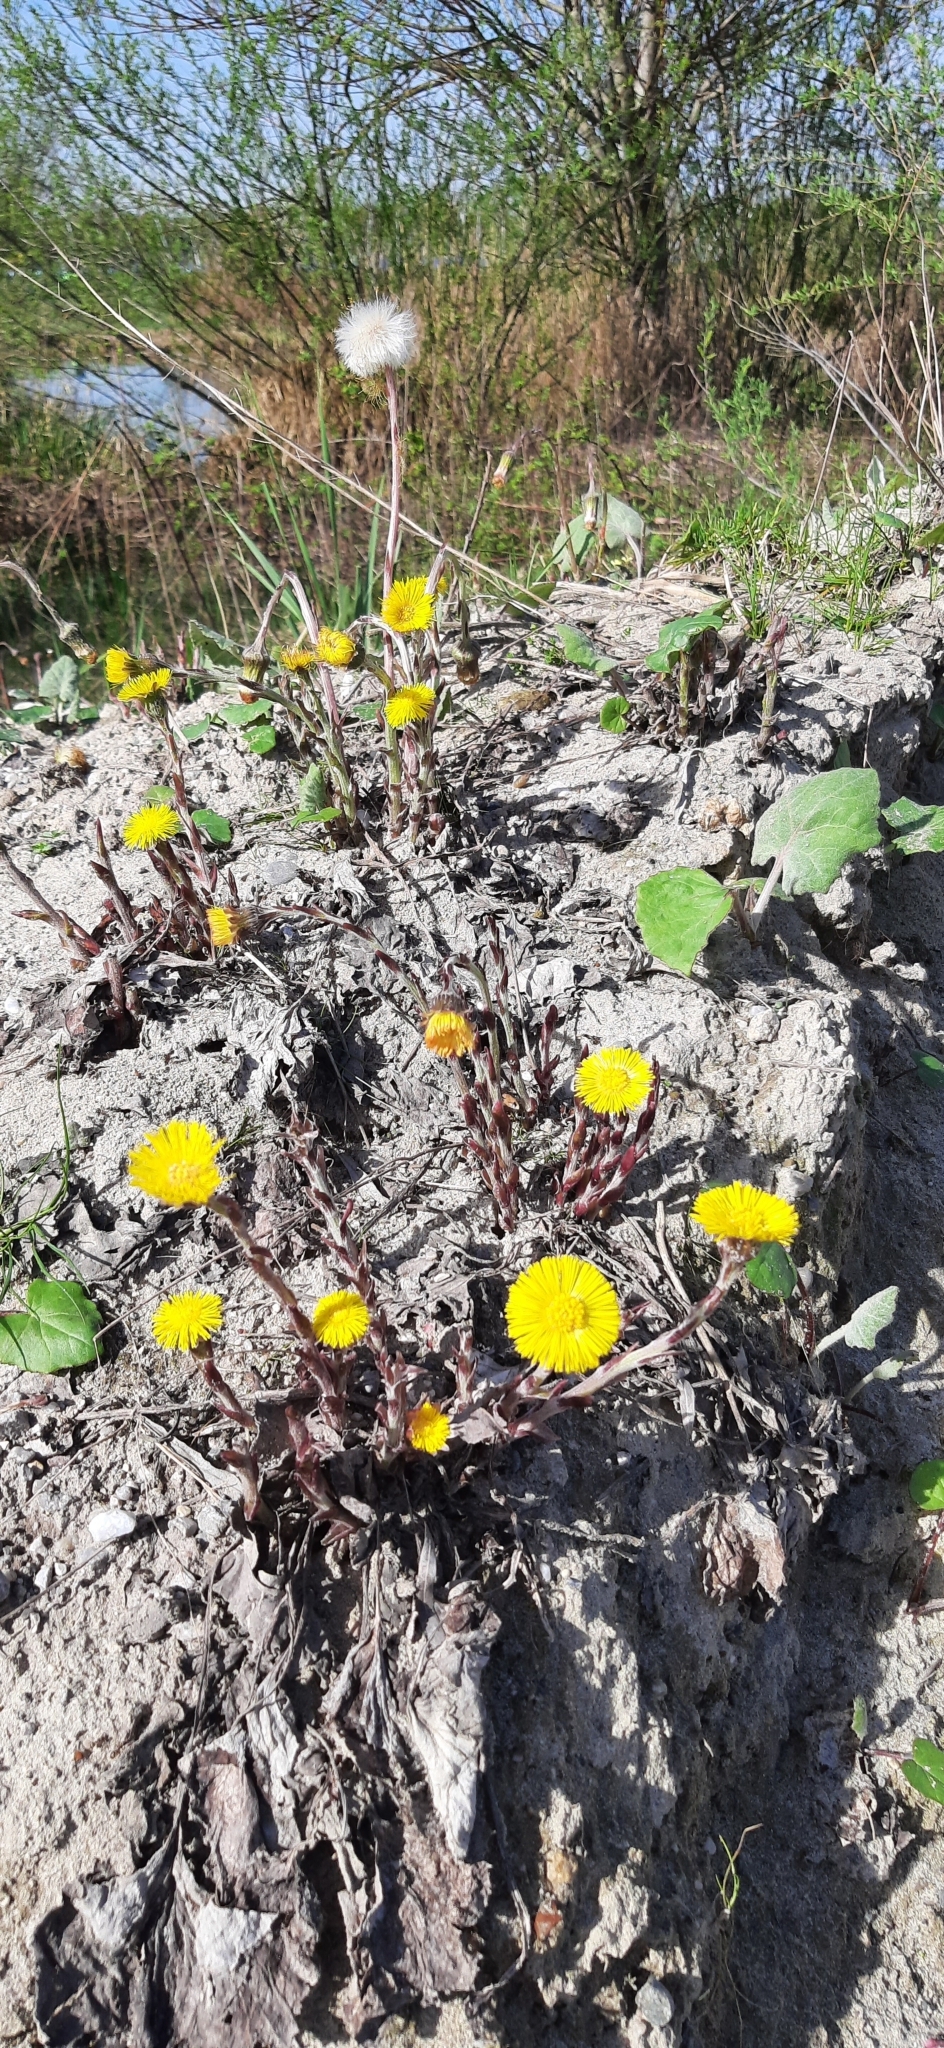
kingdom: Plantae
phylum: Tracheophyta
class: Magnoliopsida
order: Asterales
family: Asteraceae
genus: Tussilago
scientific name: Tussilago farfara
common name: Coltsfoot
